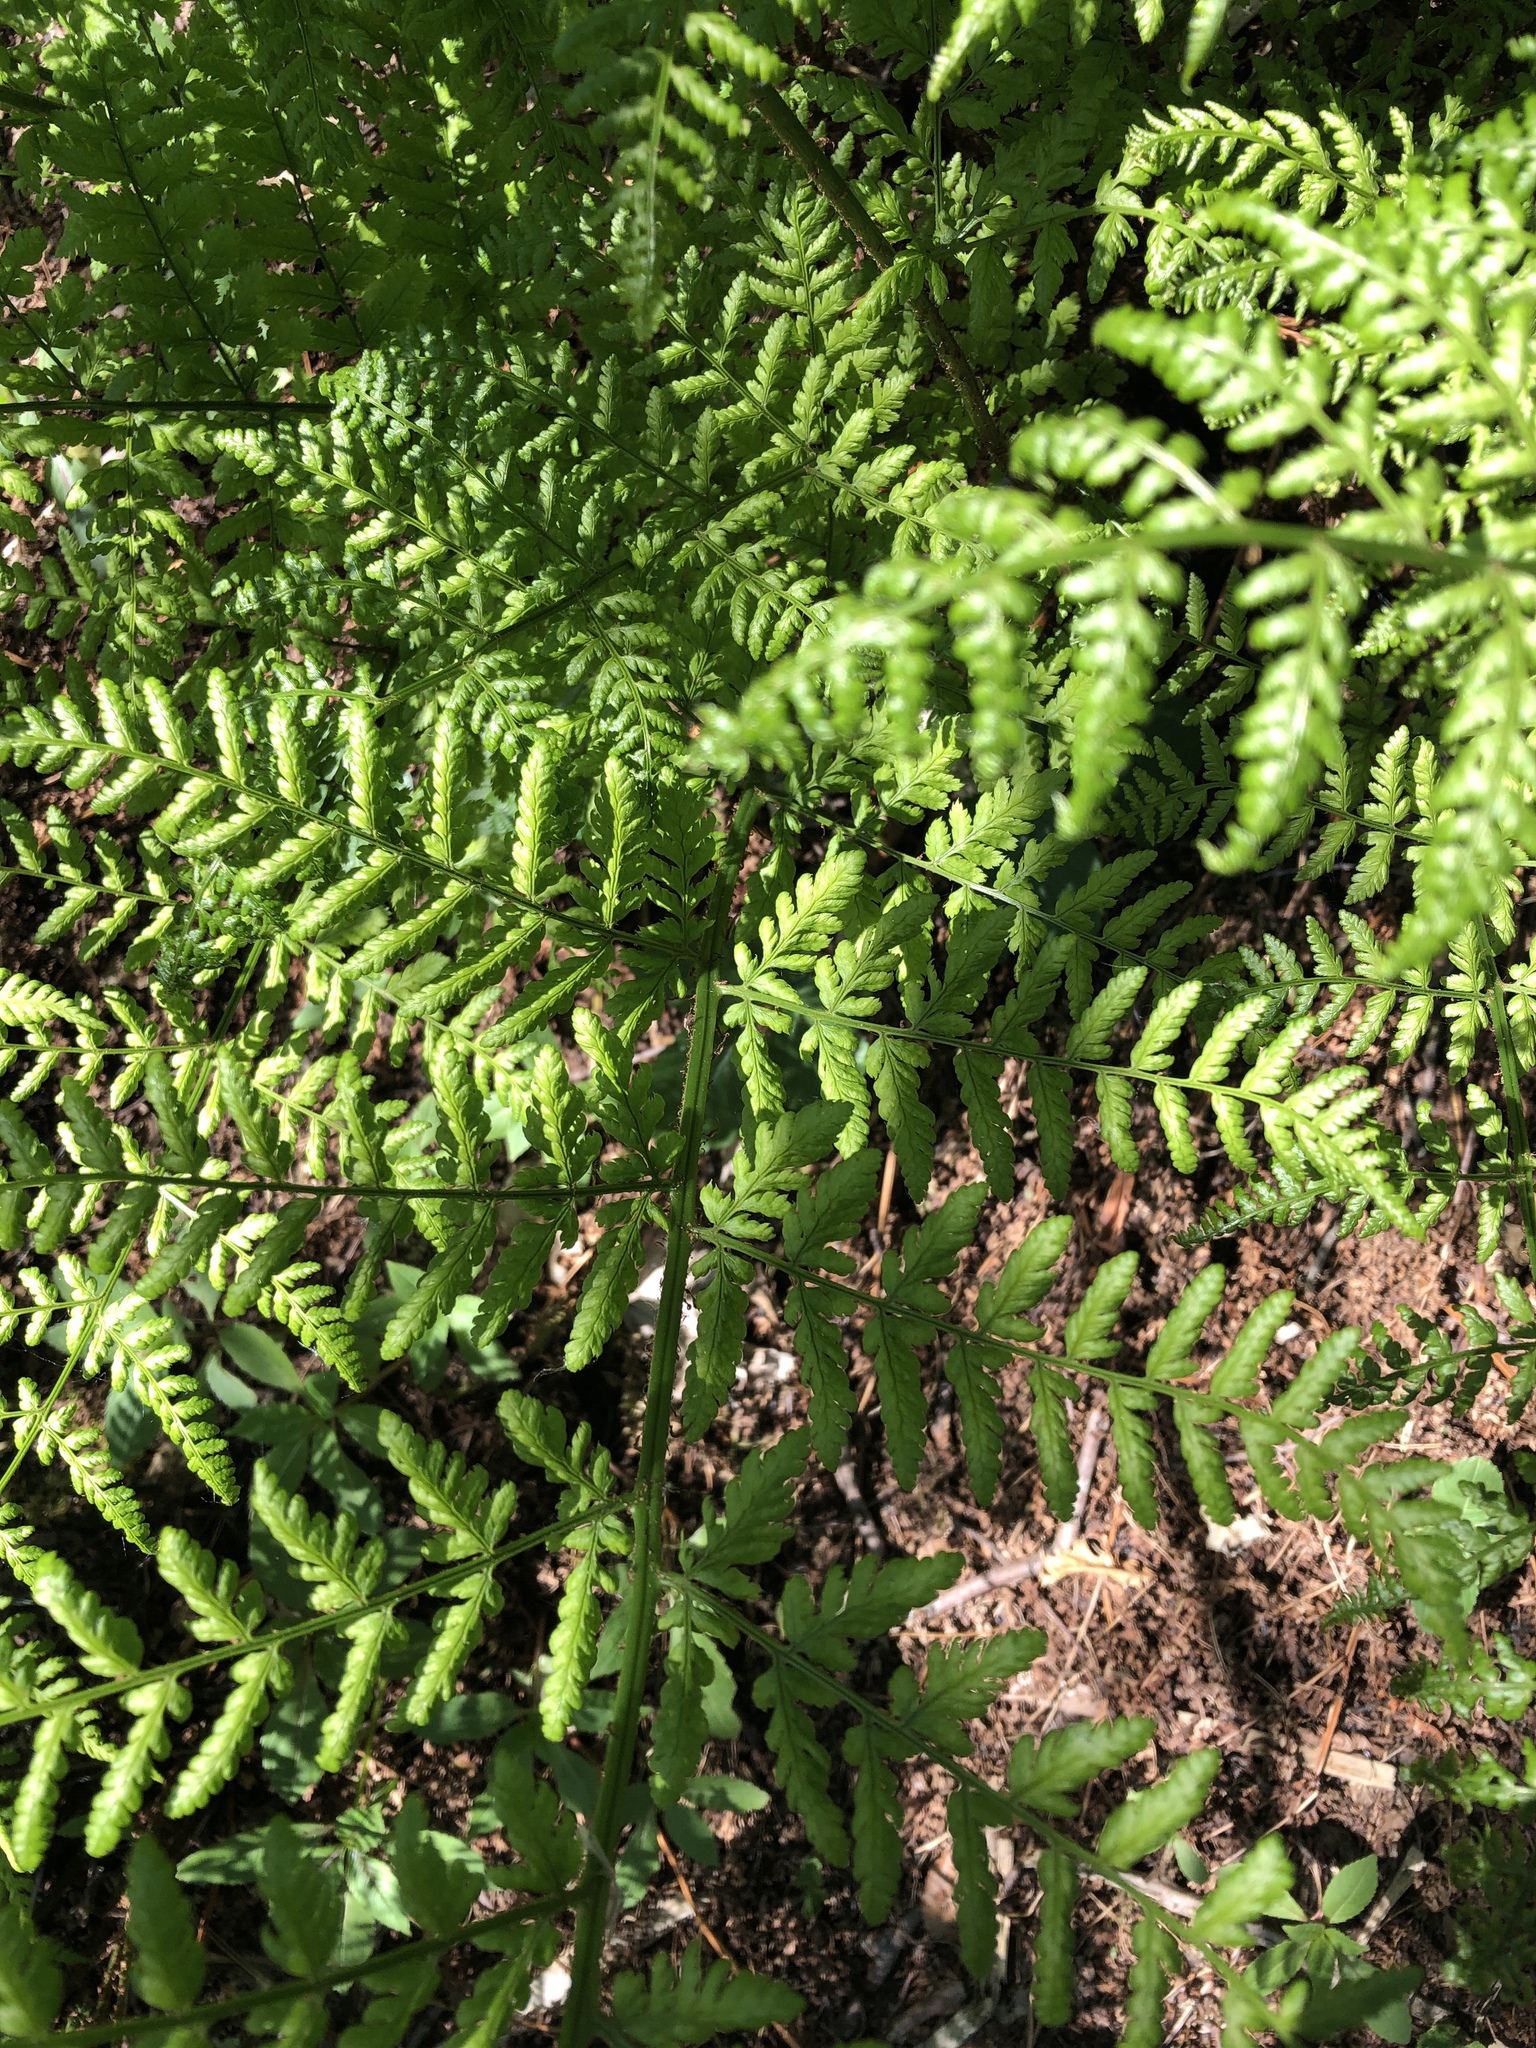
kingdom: Plantae
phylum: Tracheophyta
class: Polypodiopsida
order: Polypodiales
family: Dryopteridaceae
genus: Dryopteris
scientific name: Dryopteris dilatata
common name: Broad buckler-fern
